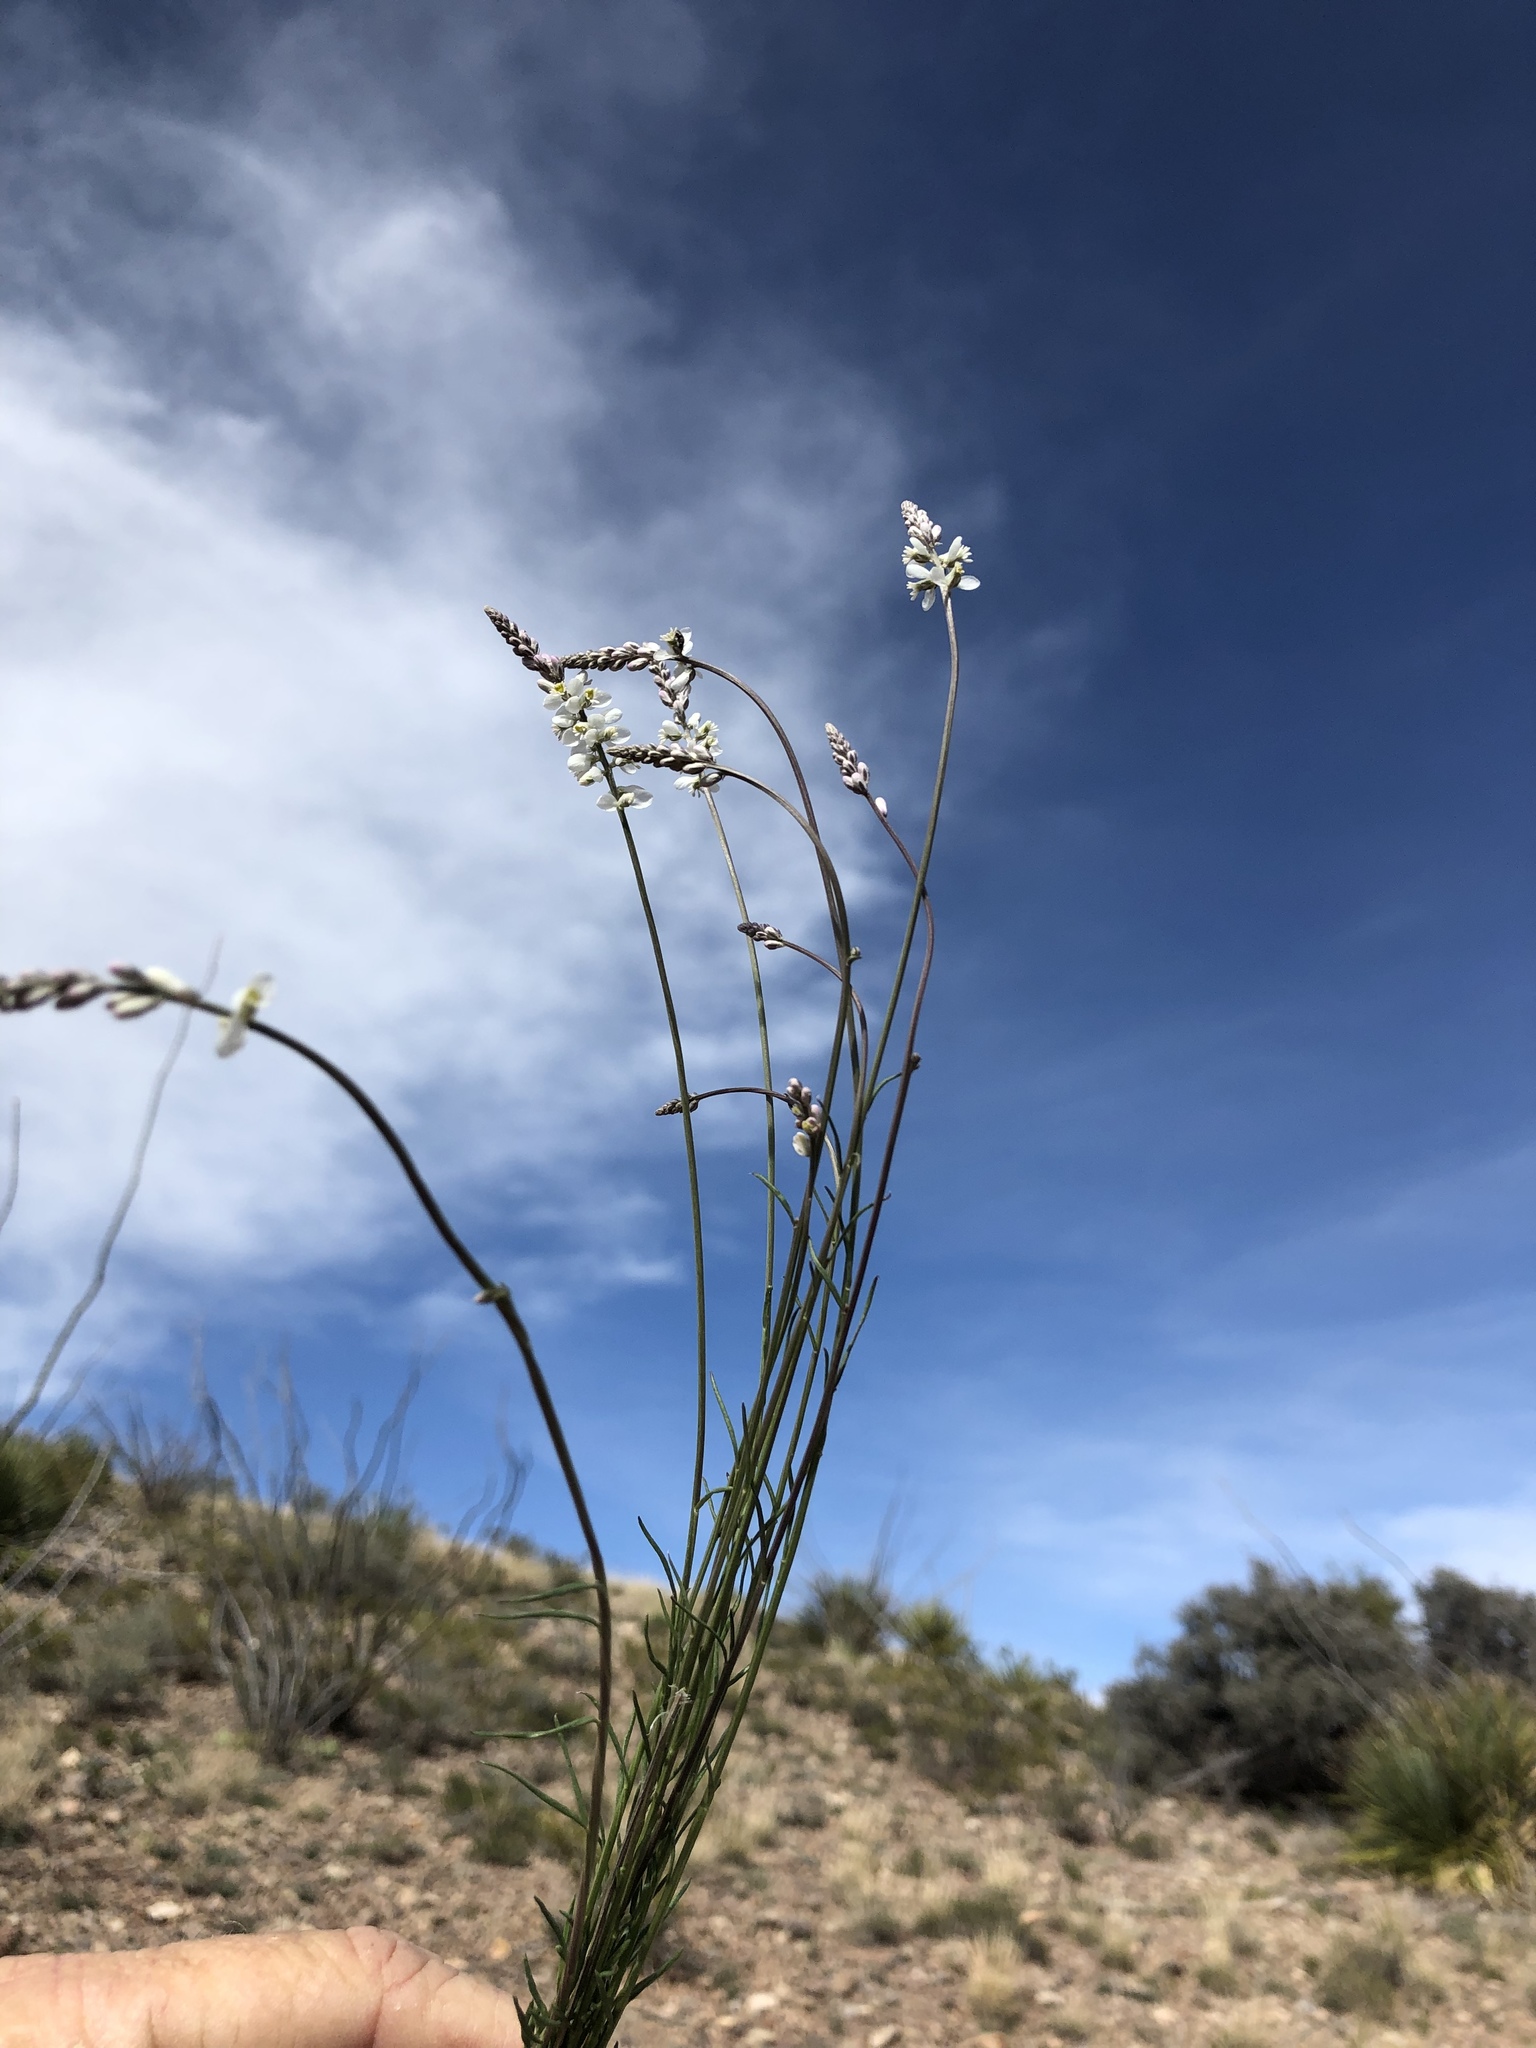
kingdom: Plantae
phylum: Tracheophyta
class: Magnoliopsida
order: Fabales
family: Polygalaceae
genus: Polygala
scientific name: Polygala alba
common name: White milkwort
